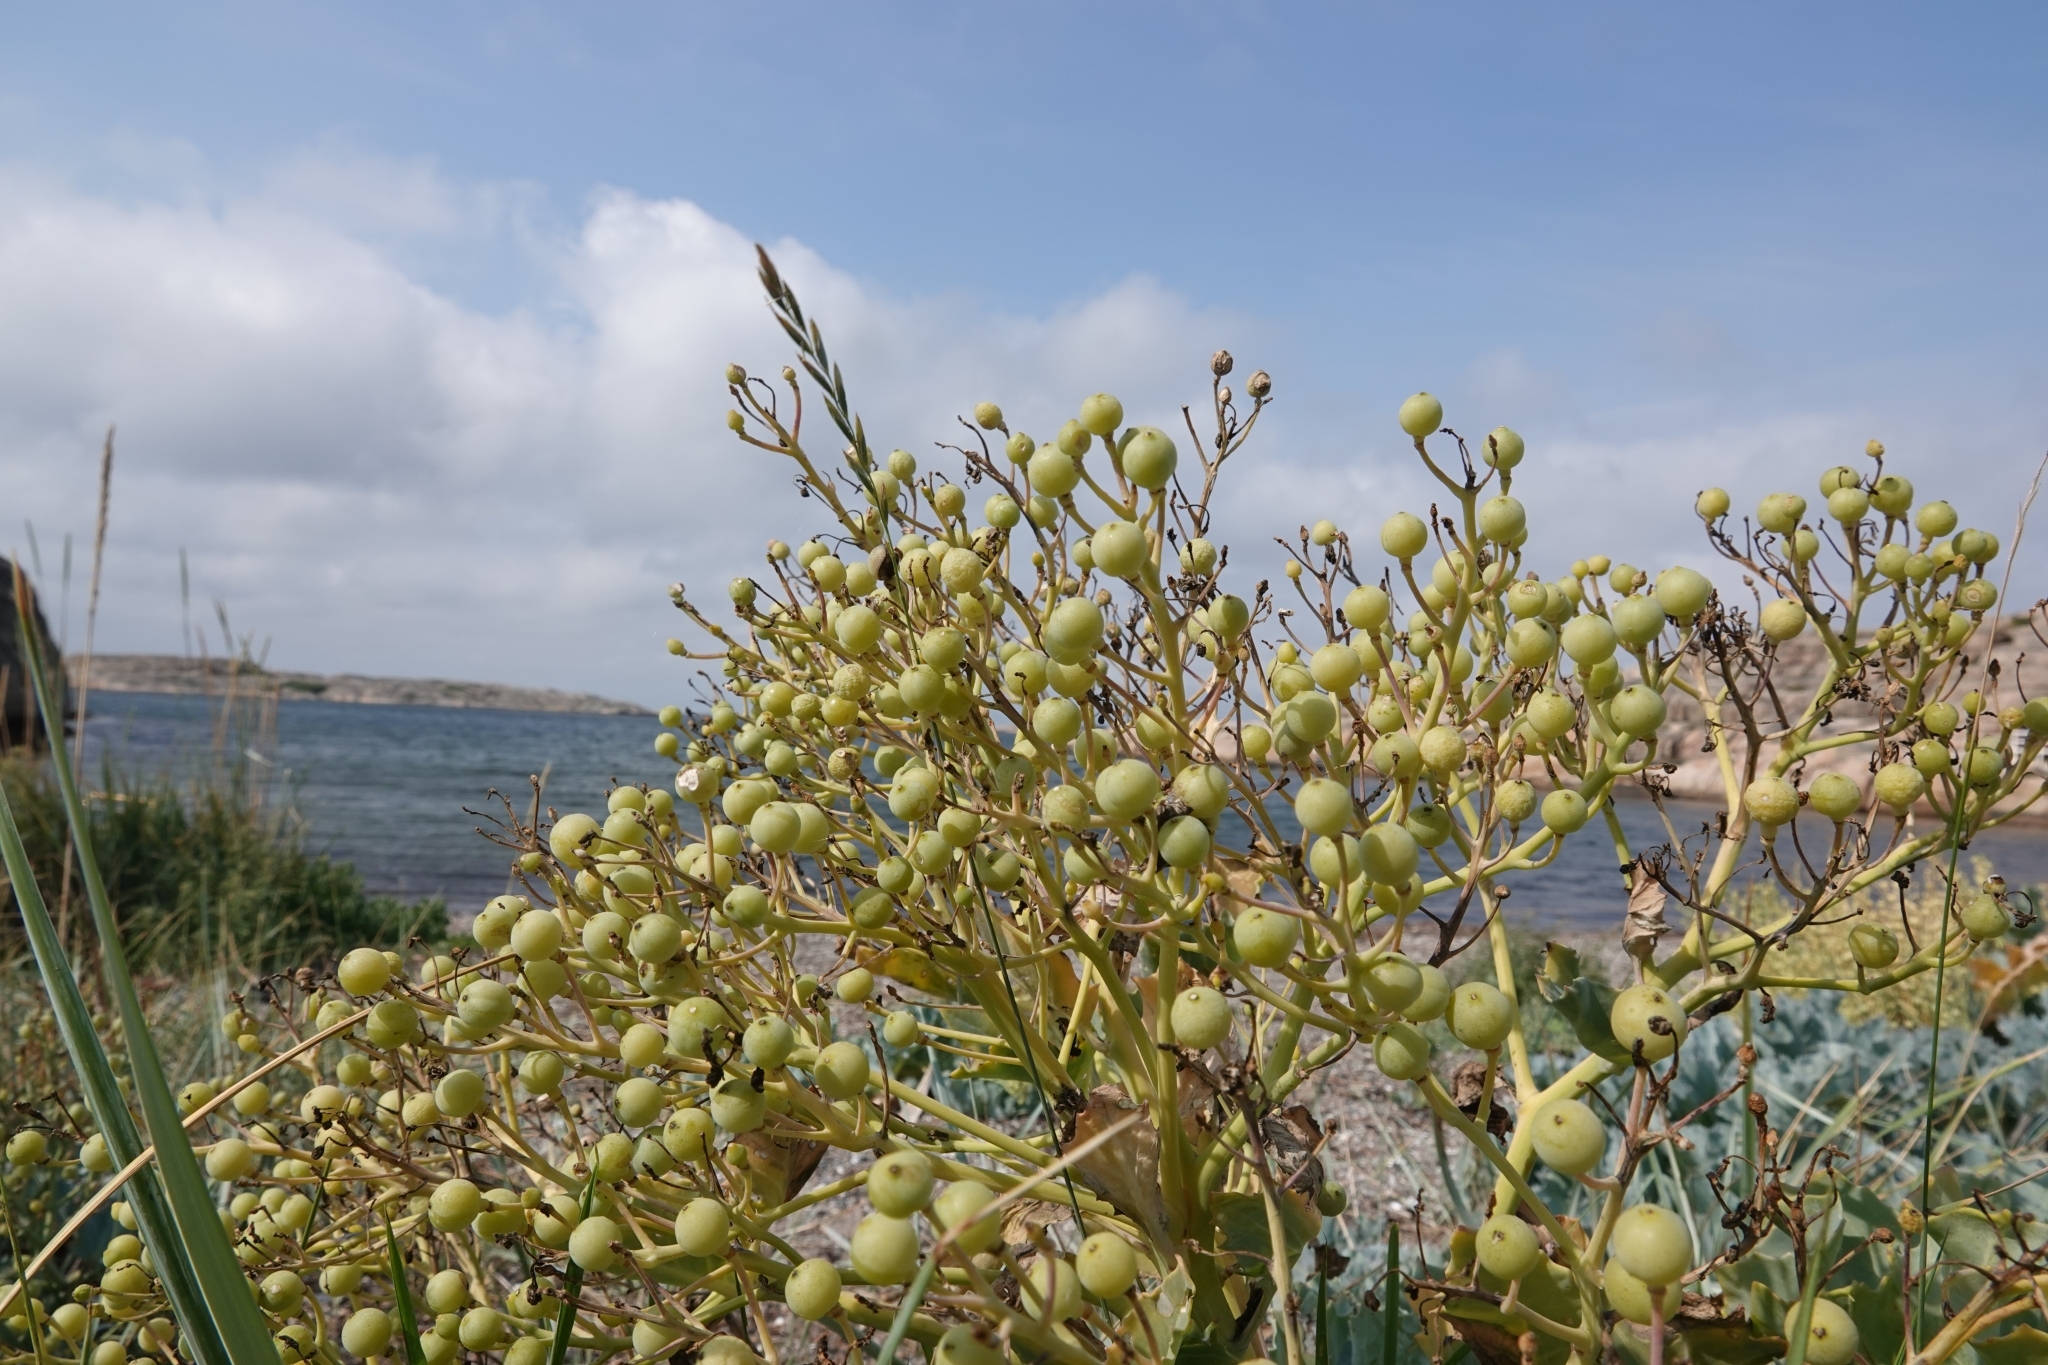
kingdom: Plantae
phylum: Tracheophyta
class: Magnoliopsida
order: Brassicales
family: Brassicaceae
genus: Crambe
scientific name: Crambe maritima
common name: Sea-kale
